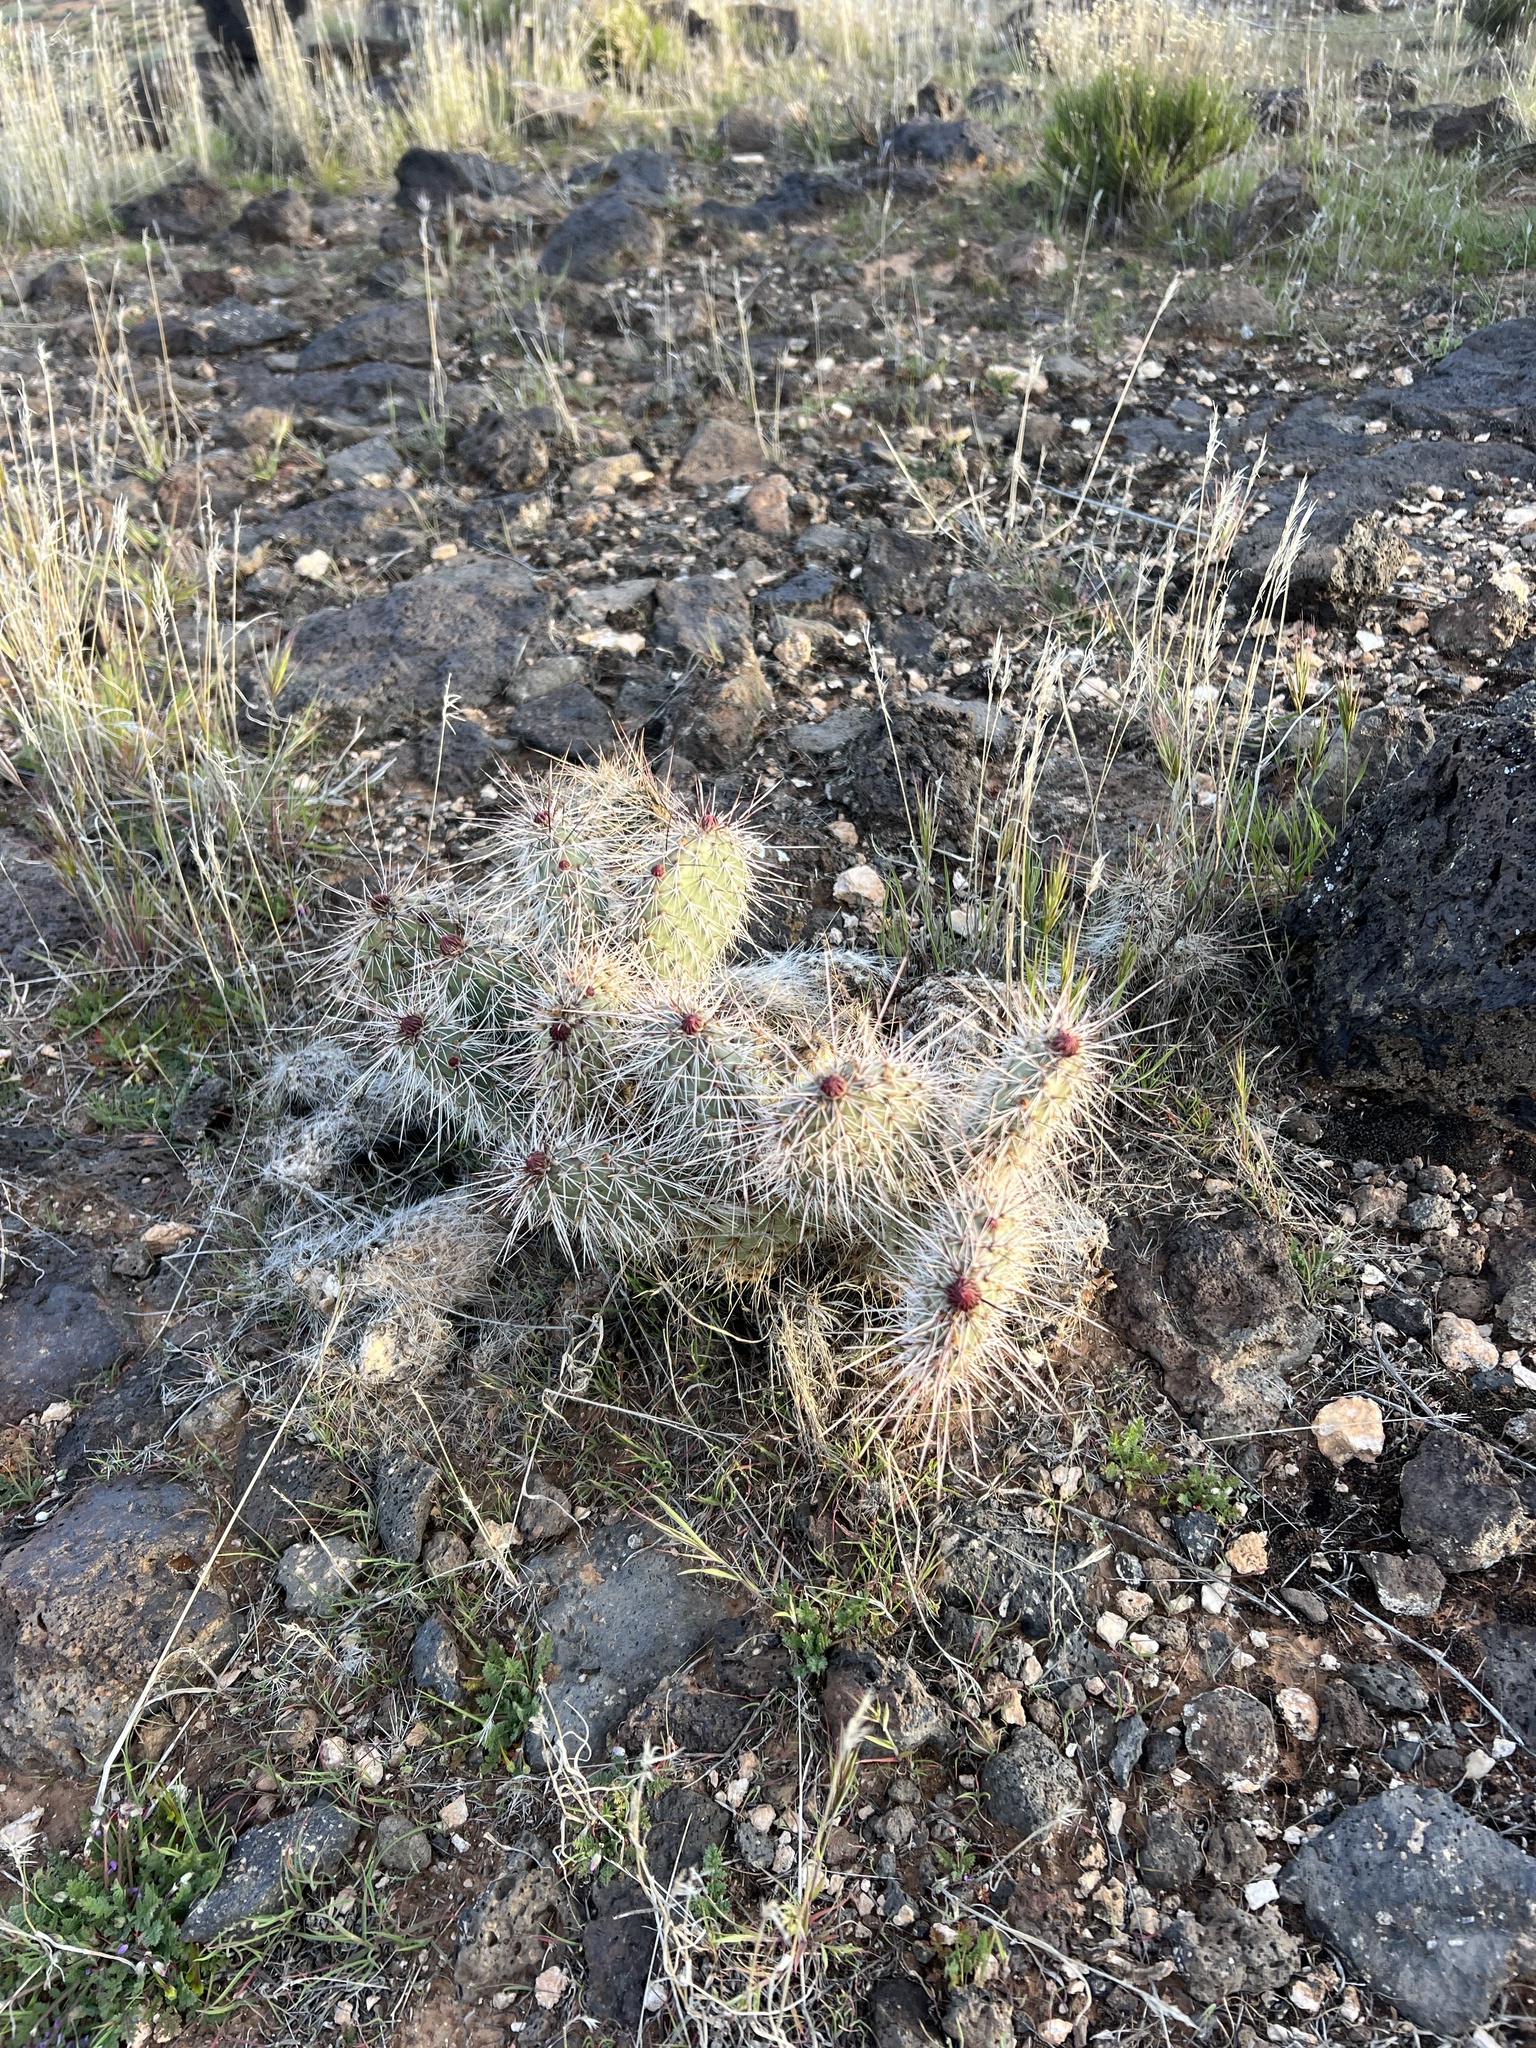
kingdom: Plantae
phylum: Tracheophyta
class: Magnoliopsida
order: Caryophyllales
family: Cactaceae
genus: Opuntia
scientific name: Opuntia polyacantha
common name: Plains prickly-pear
